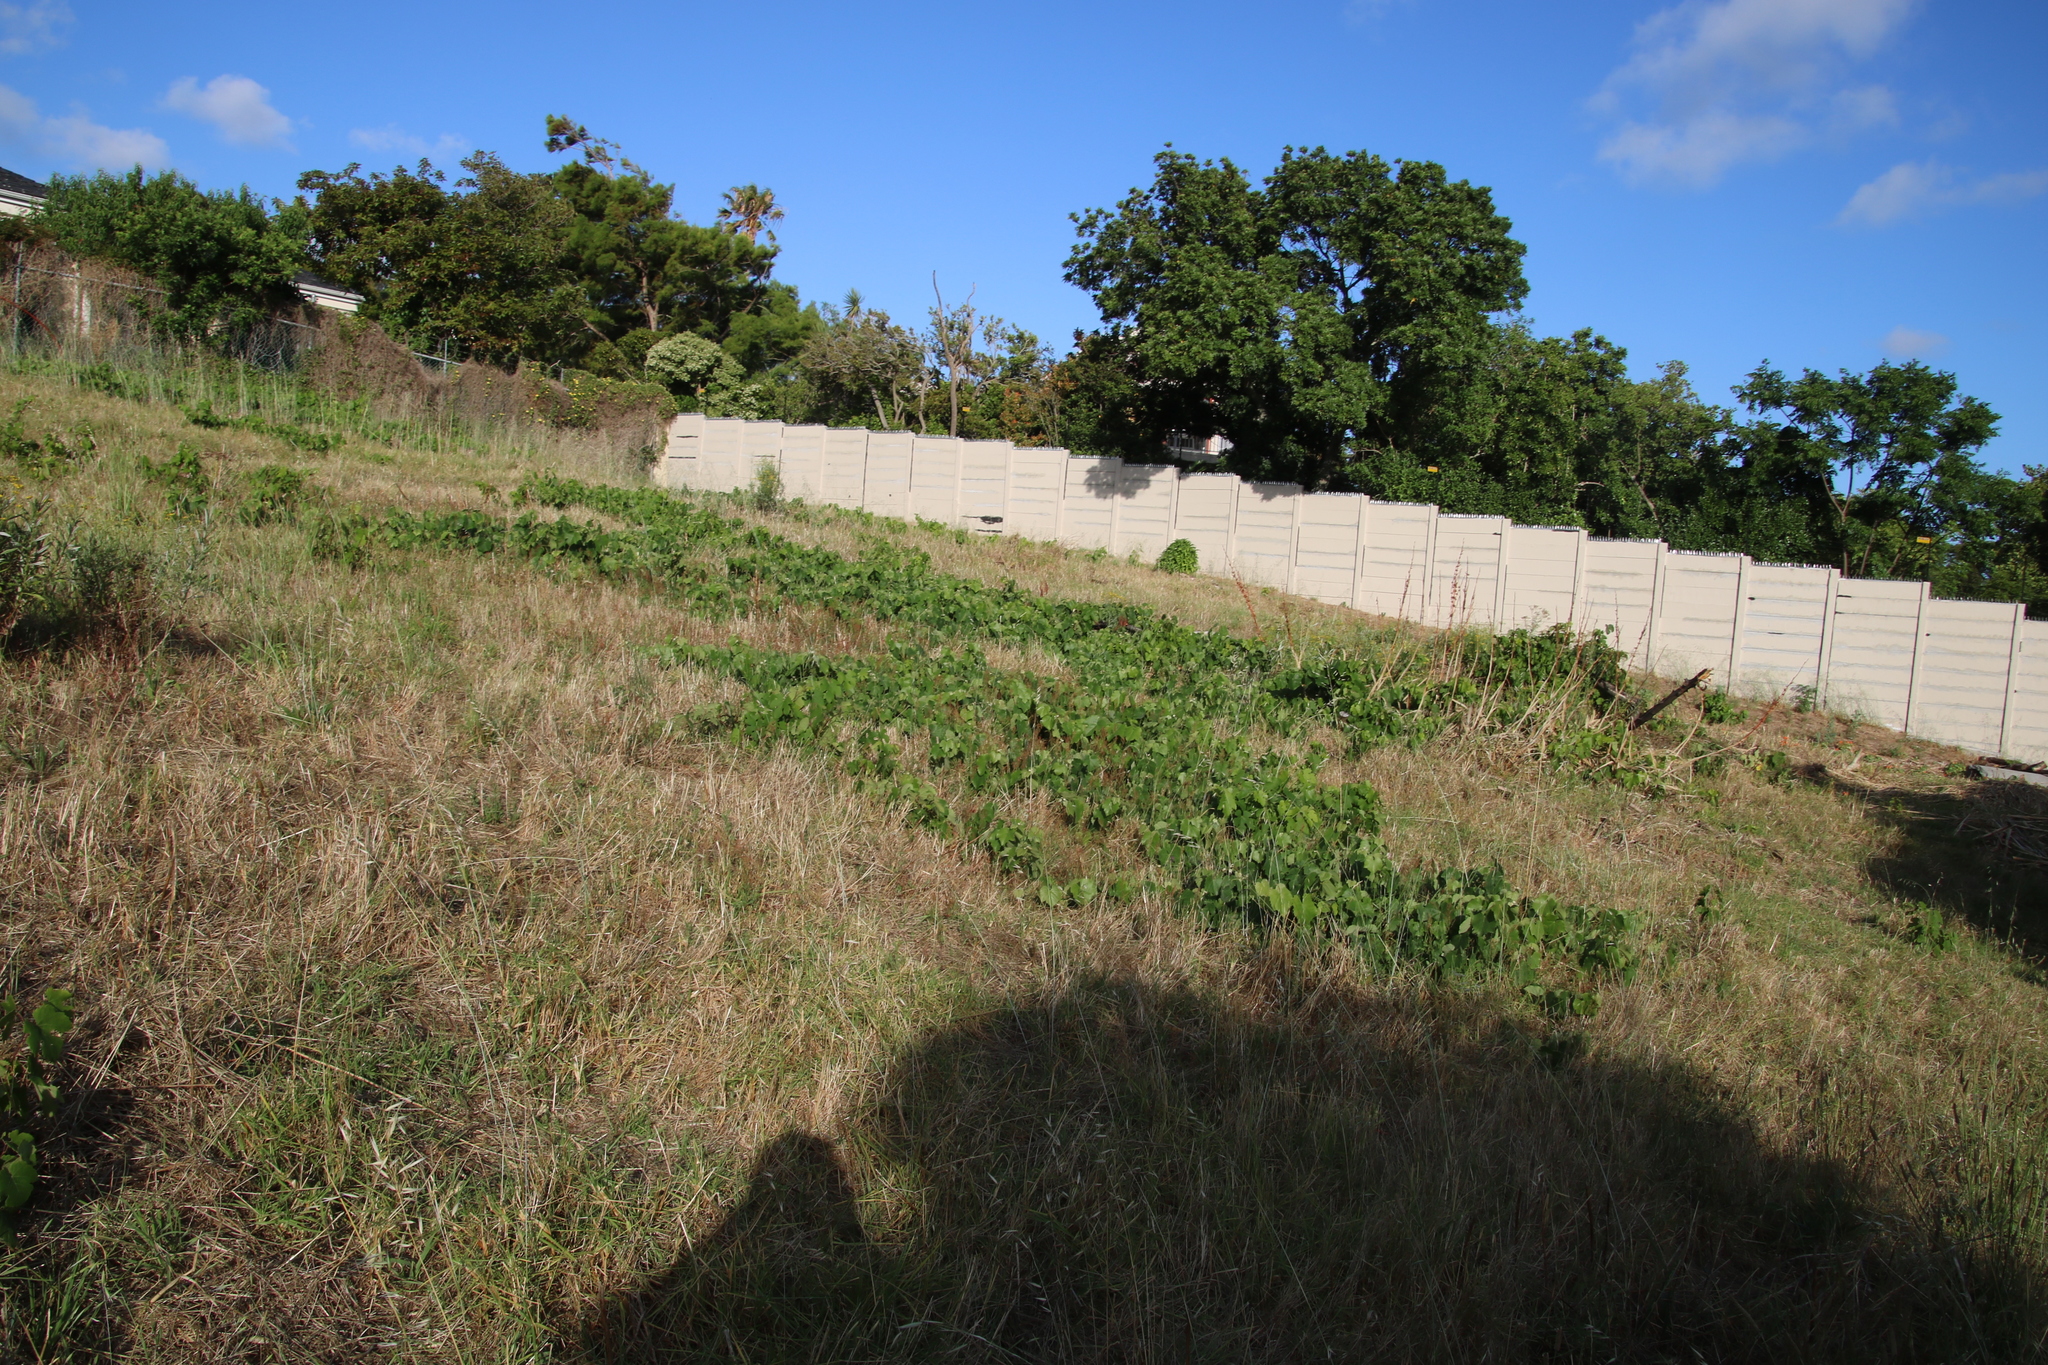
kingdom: Plantae
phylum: Tracheophyta
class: Magnoliopsida
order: Vitales
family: Vitaceae
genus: Vitis
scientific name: Vitis vinifera
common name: Grape-vine
